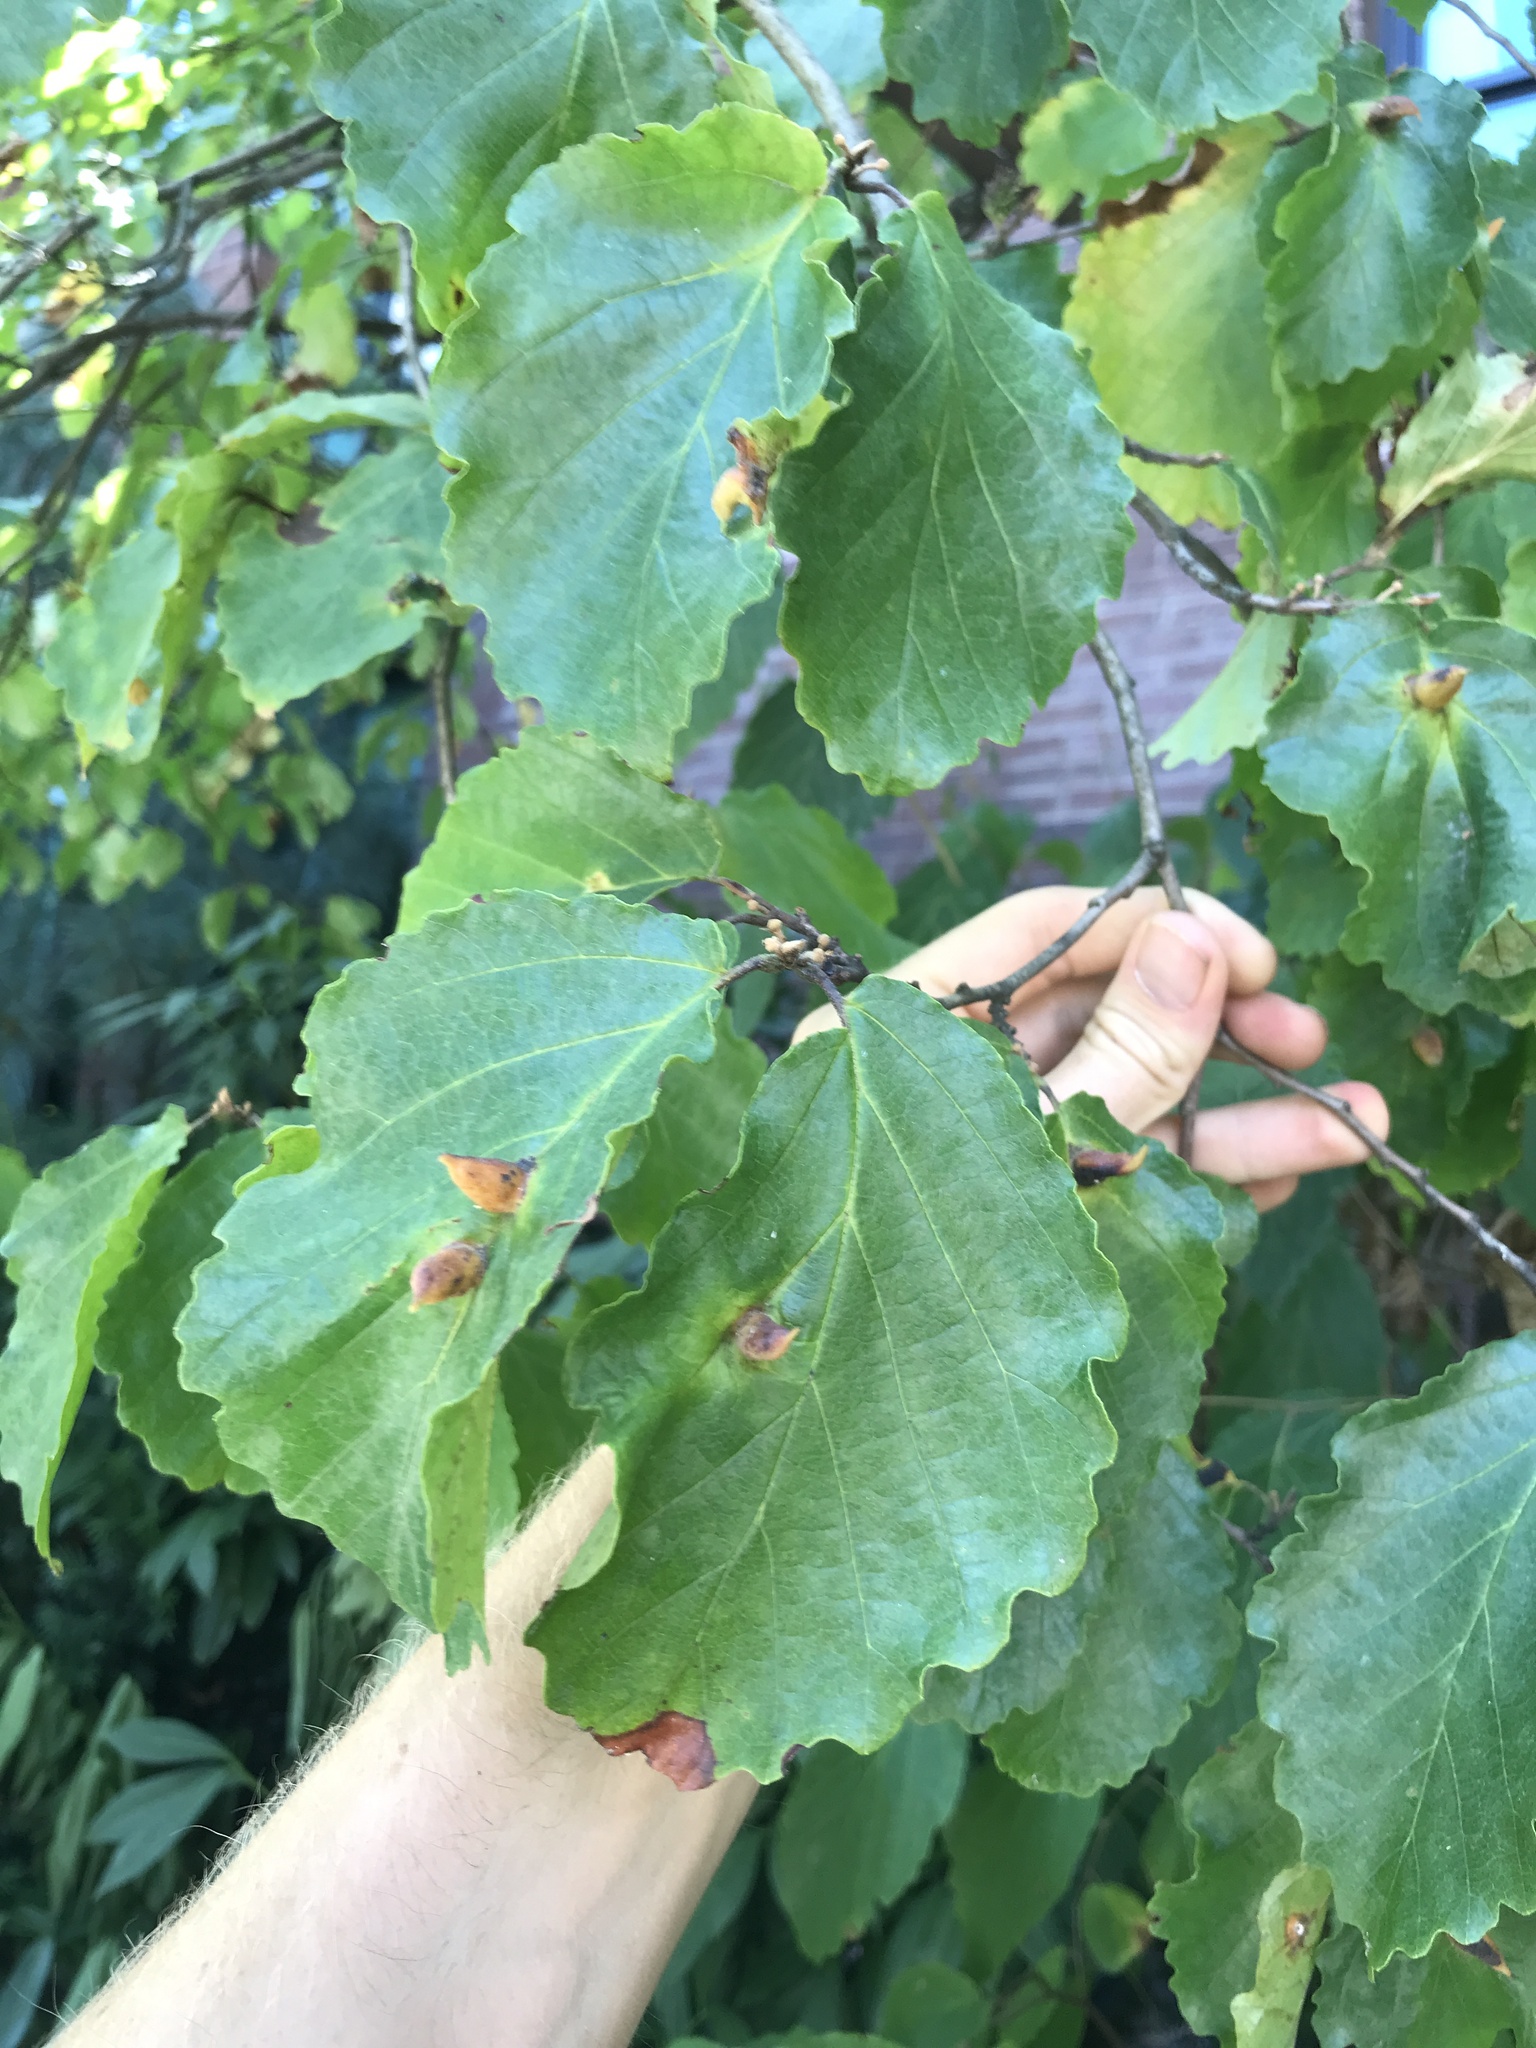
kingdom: Animalia
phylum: Arthropoda
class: Insecta
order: Hemiptera
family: Aphididae
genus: Hormaphis
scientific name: Hormaphis hamamelidis
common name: Witch-hazel cone gall aphid
